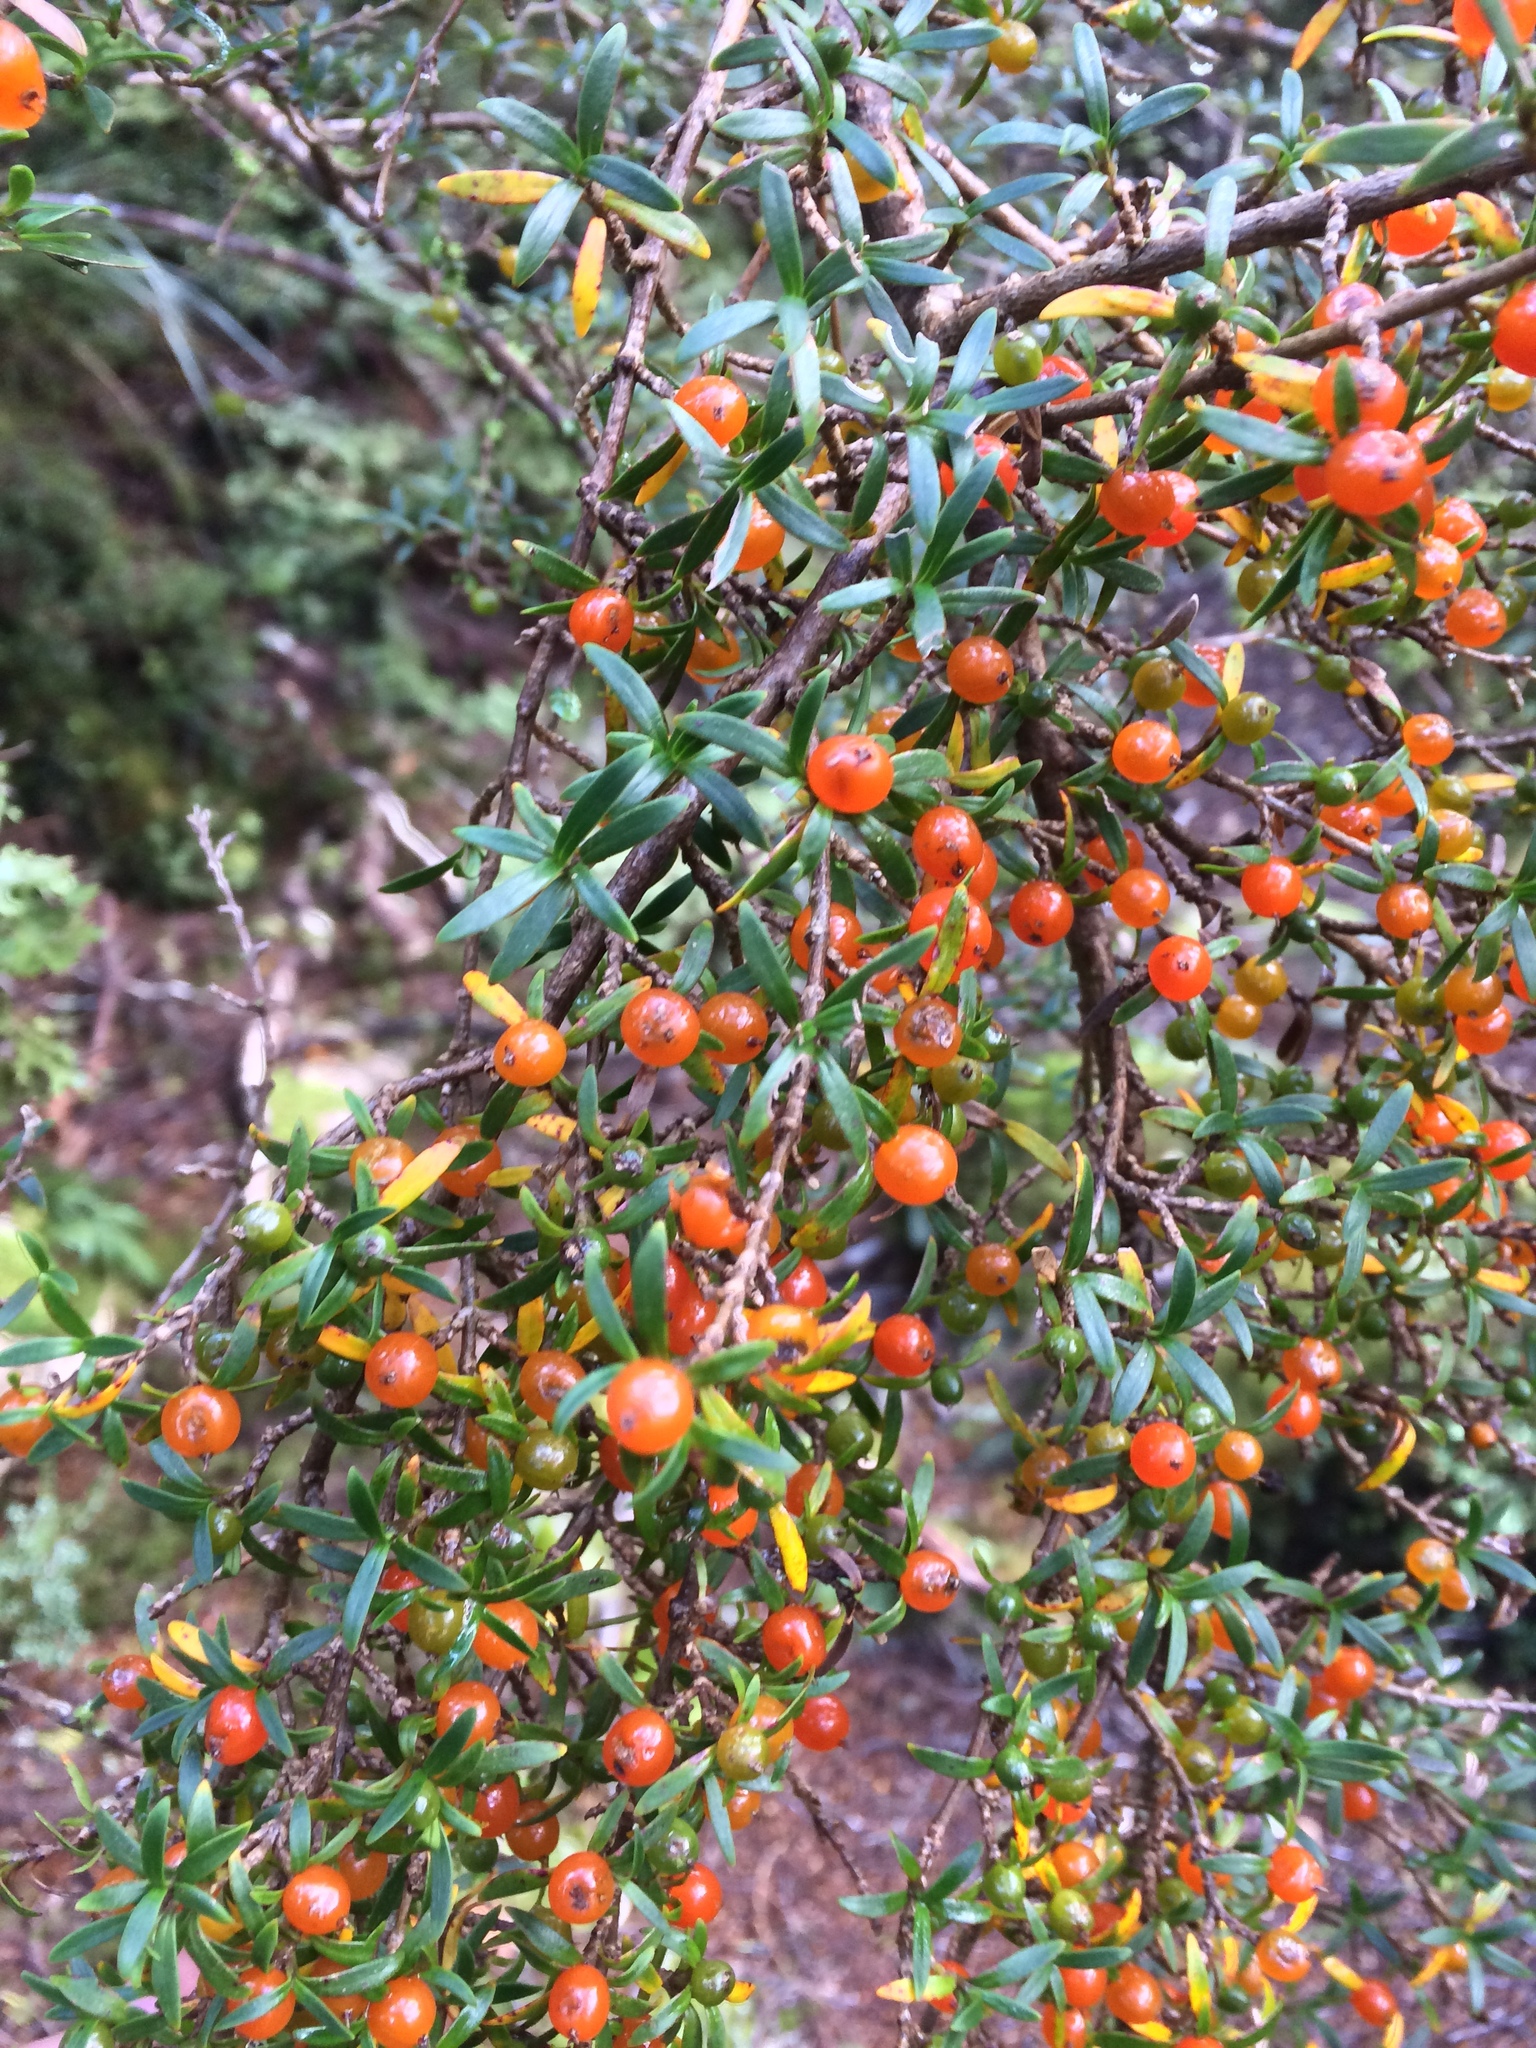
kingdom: Plantae
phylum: Tracheophyta
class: Magnoliopsida
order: Gentianales
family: Rubiaceae
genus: Coprosma
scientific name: Coprosma pseudocuneata
